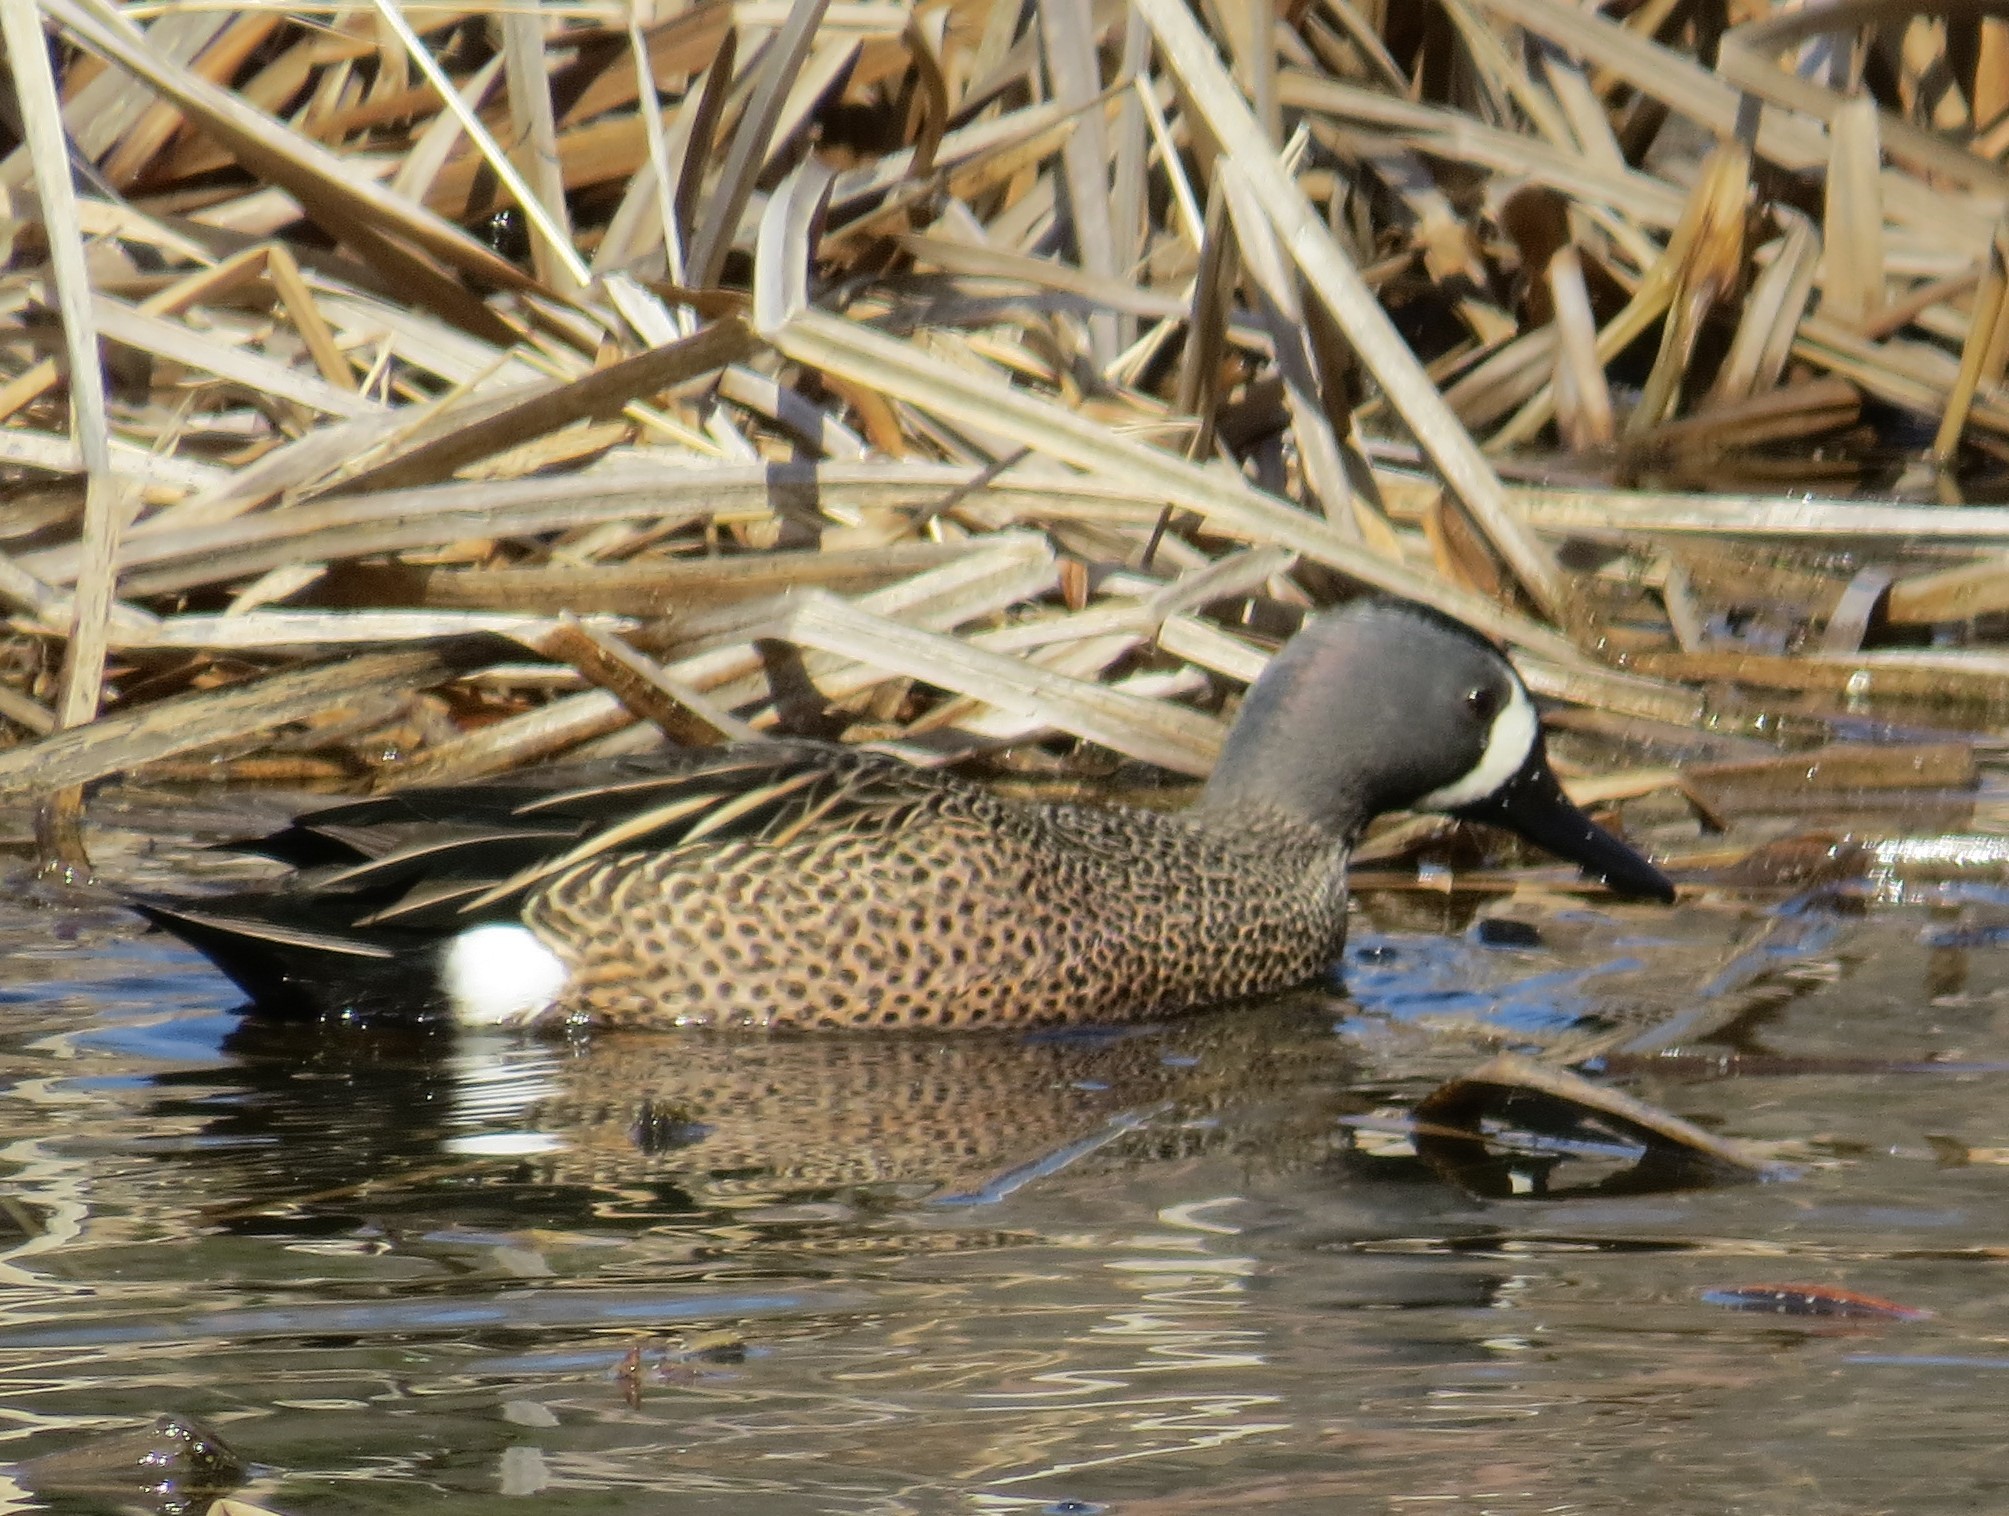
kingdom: Animalia
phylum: Chordata
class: Aves
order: Anseriformes
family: Anatidae
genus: Spatula
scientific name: Spatula discors
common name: Blue-winged teal
